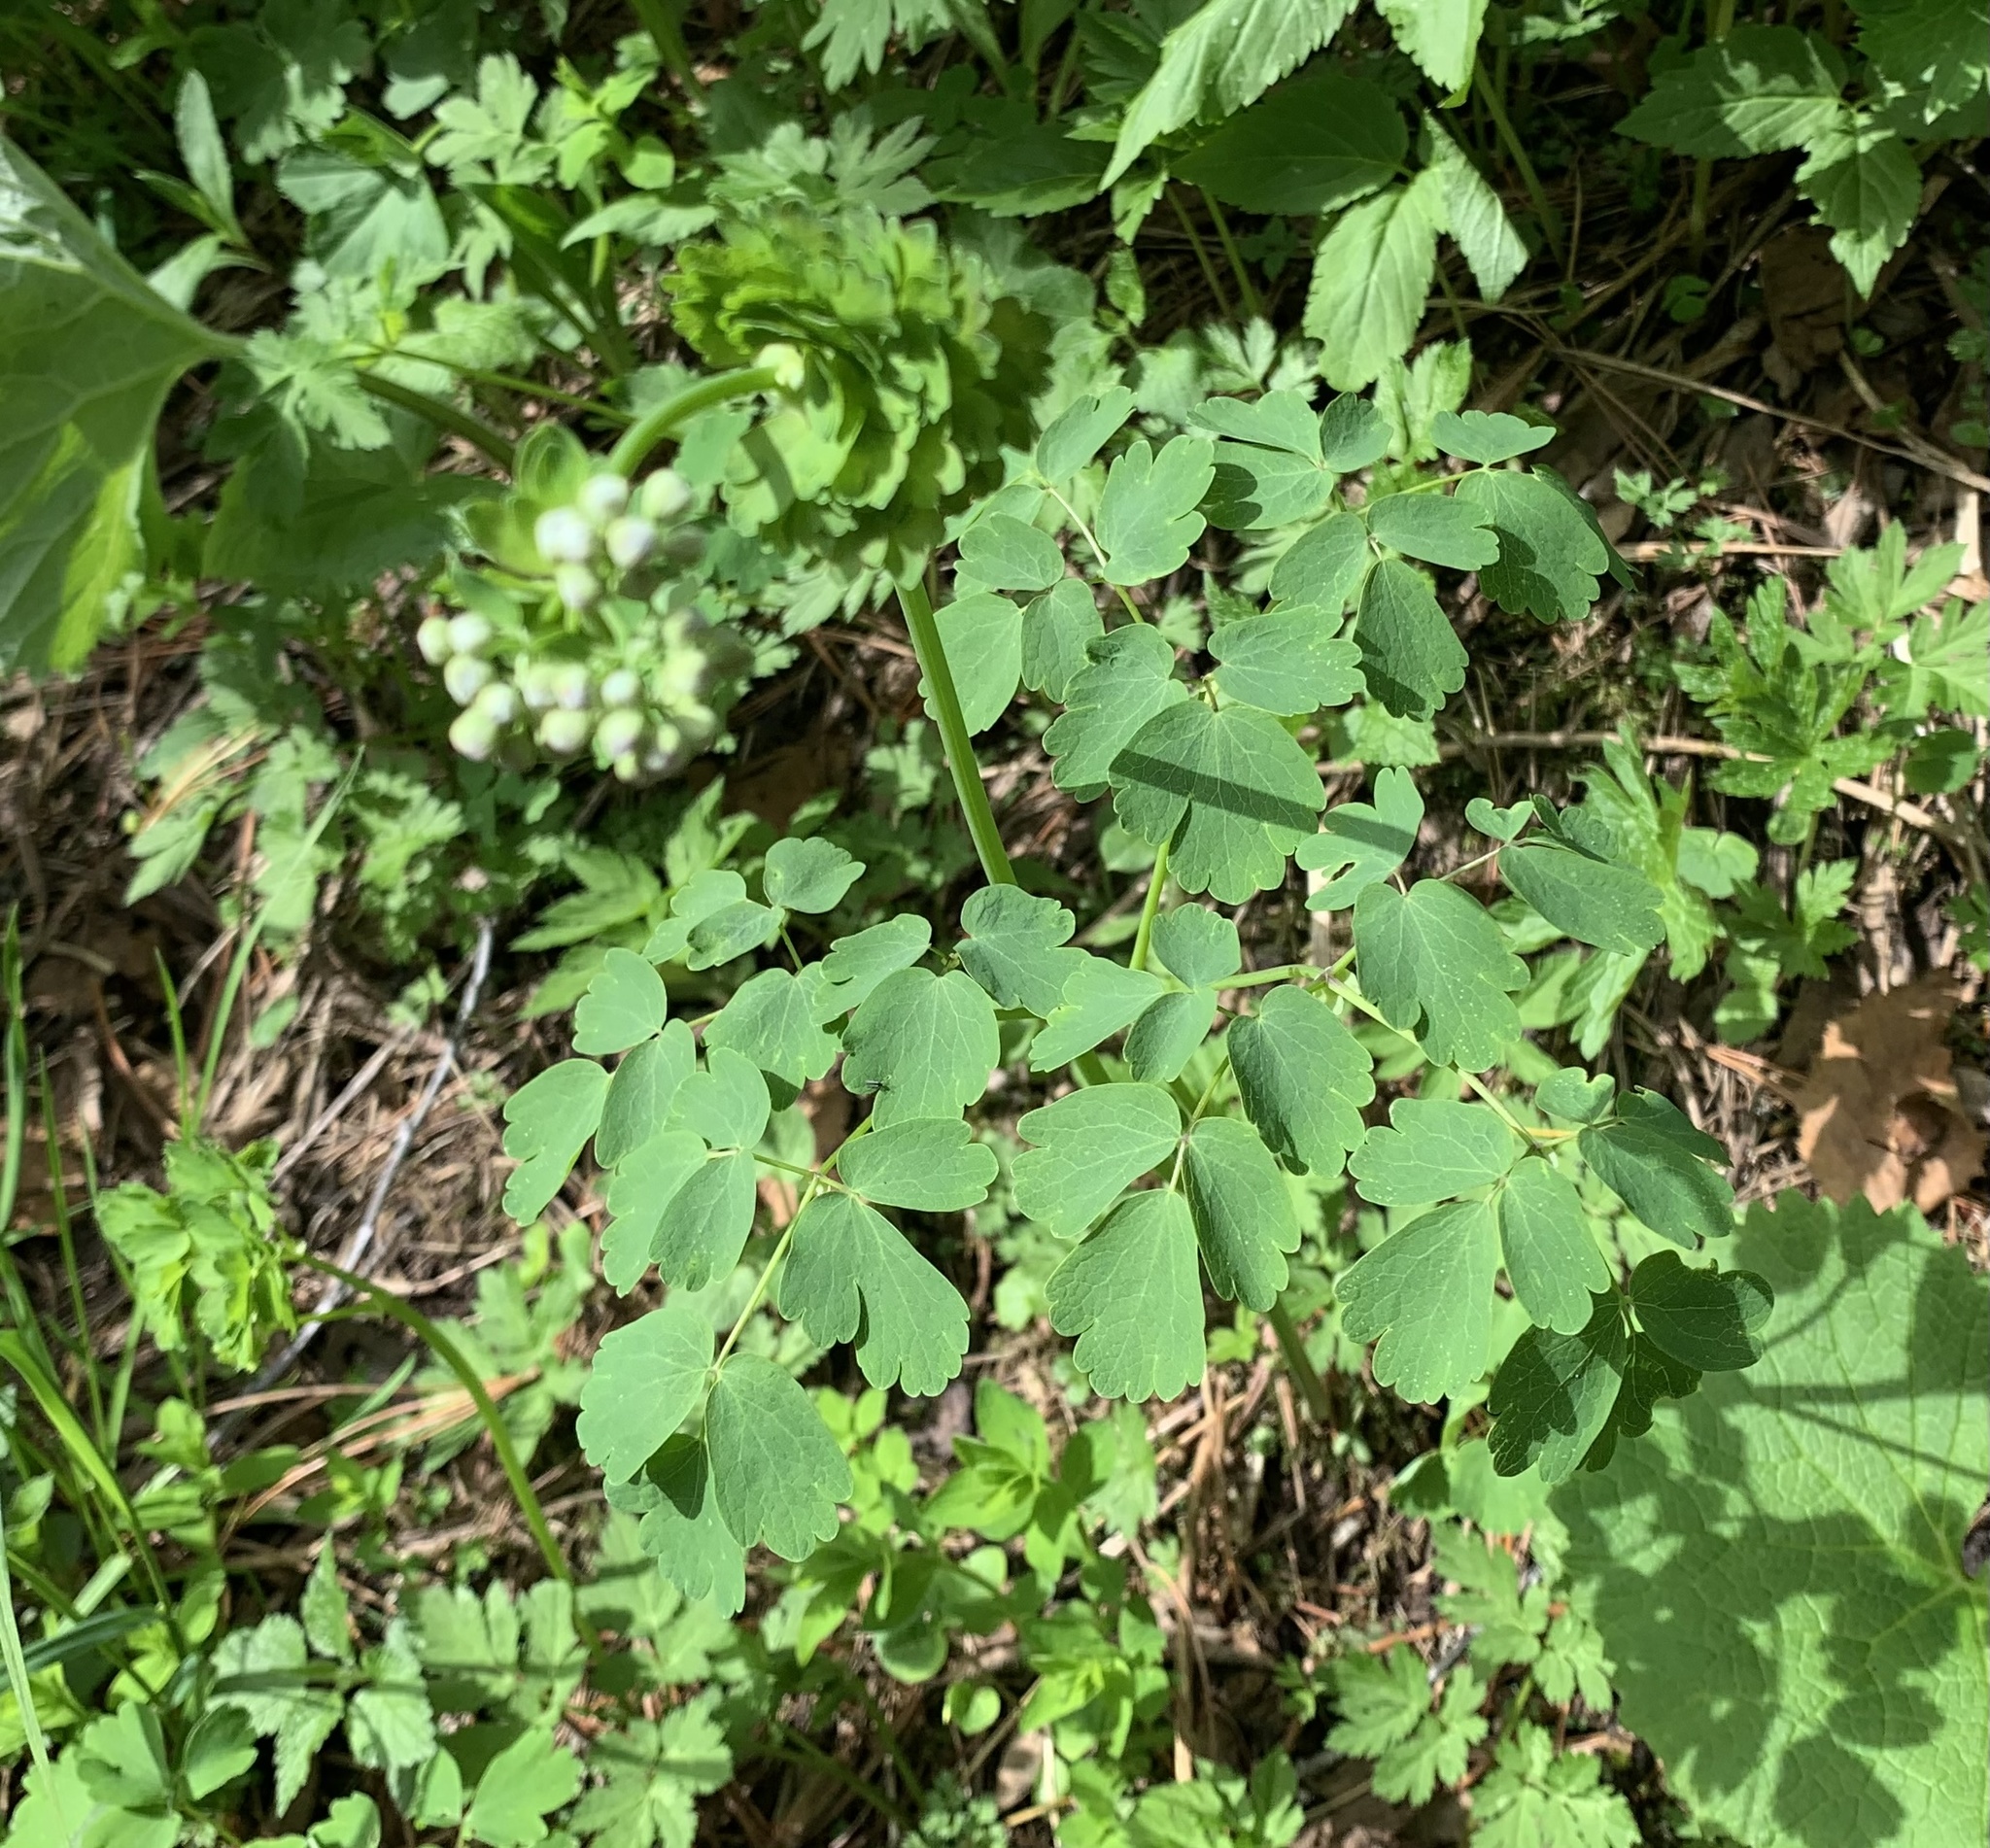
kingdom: Plantae
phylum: Tracheophyta
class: Magnoliopsida
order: Ranunculales
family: Ranunculaceae
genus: Thalictrum
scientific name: Thalictrum aquilegiifolium
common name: French meadow-rue
